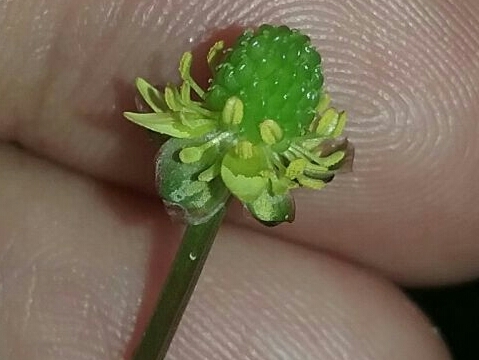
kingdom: Plantae
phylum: Tracheophyta
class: Magnoliopsida
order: Ranunculales
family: Ranunculaceae
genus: Ranunculus
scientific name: Ranunculus abortivus
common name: Early wood buttercup
